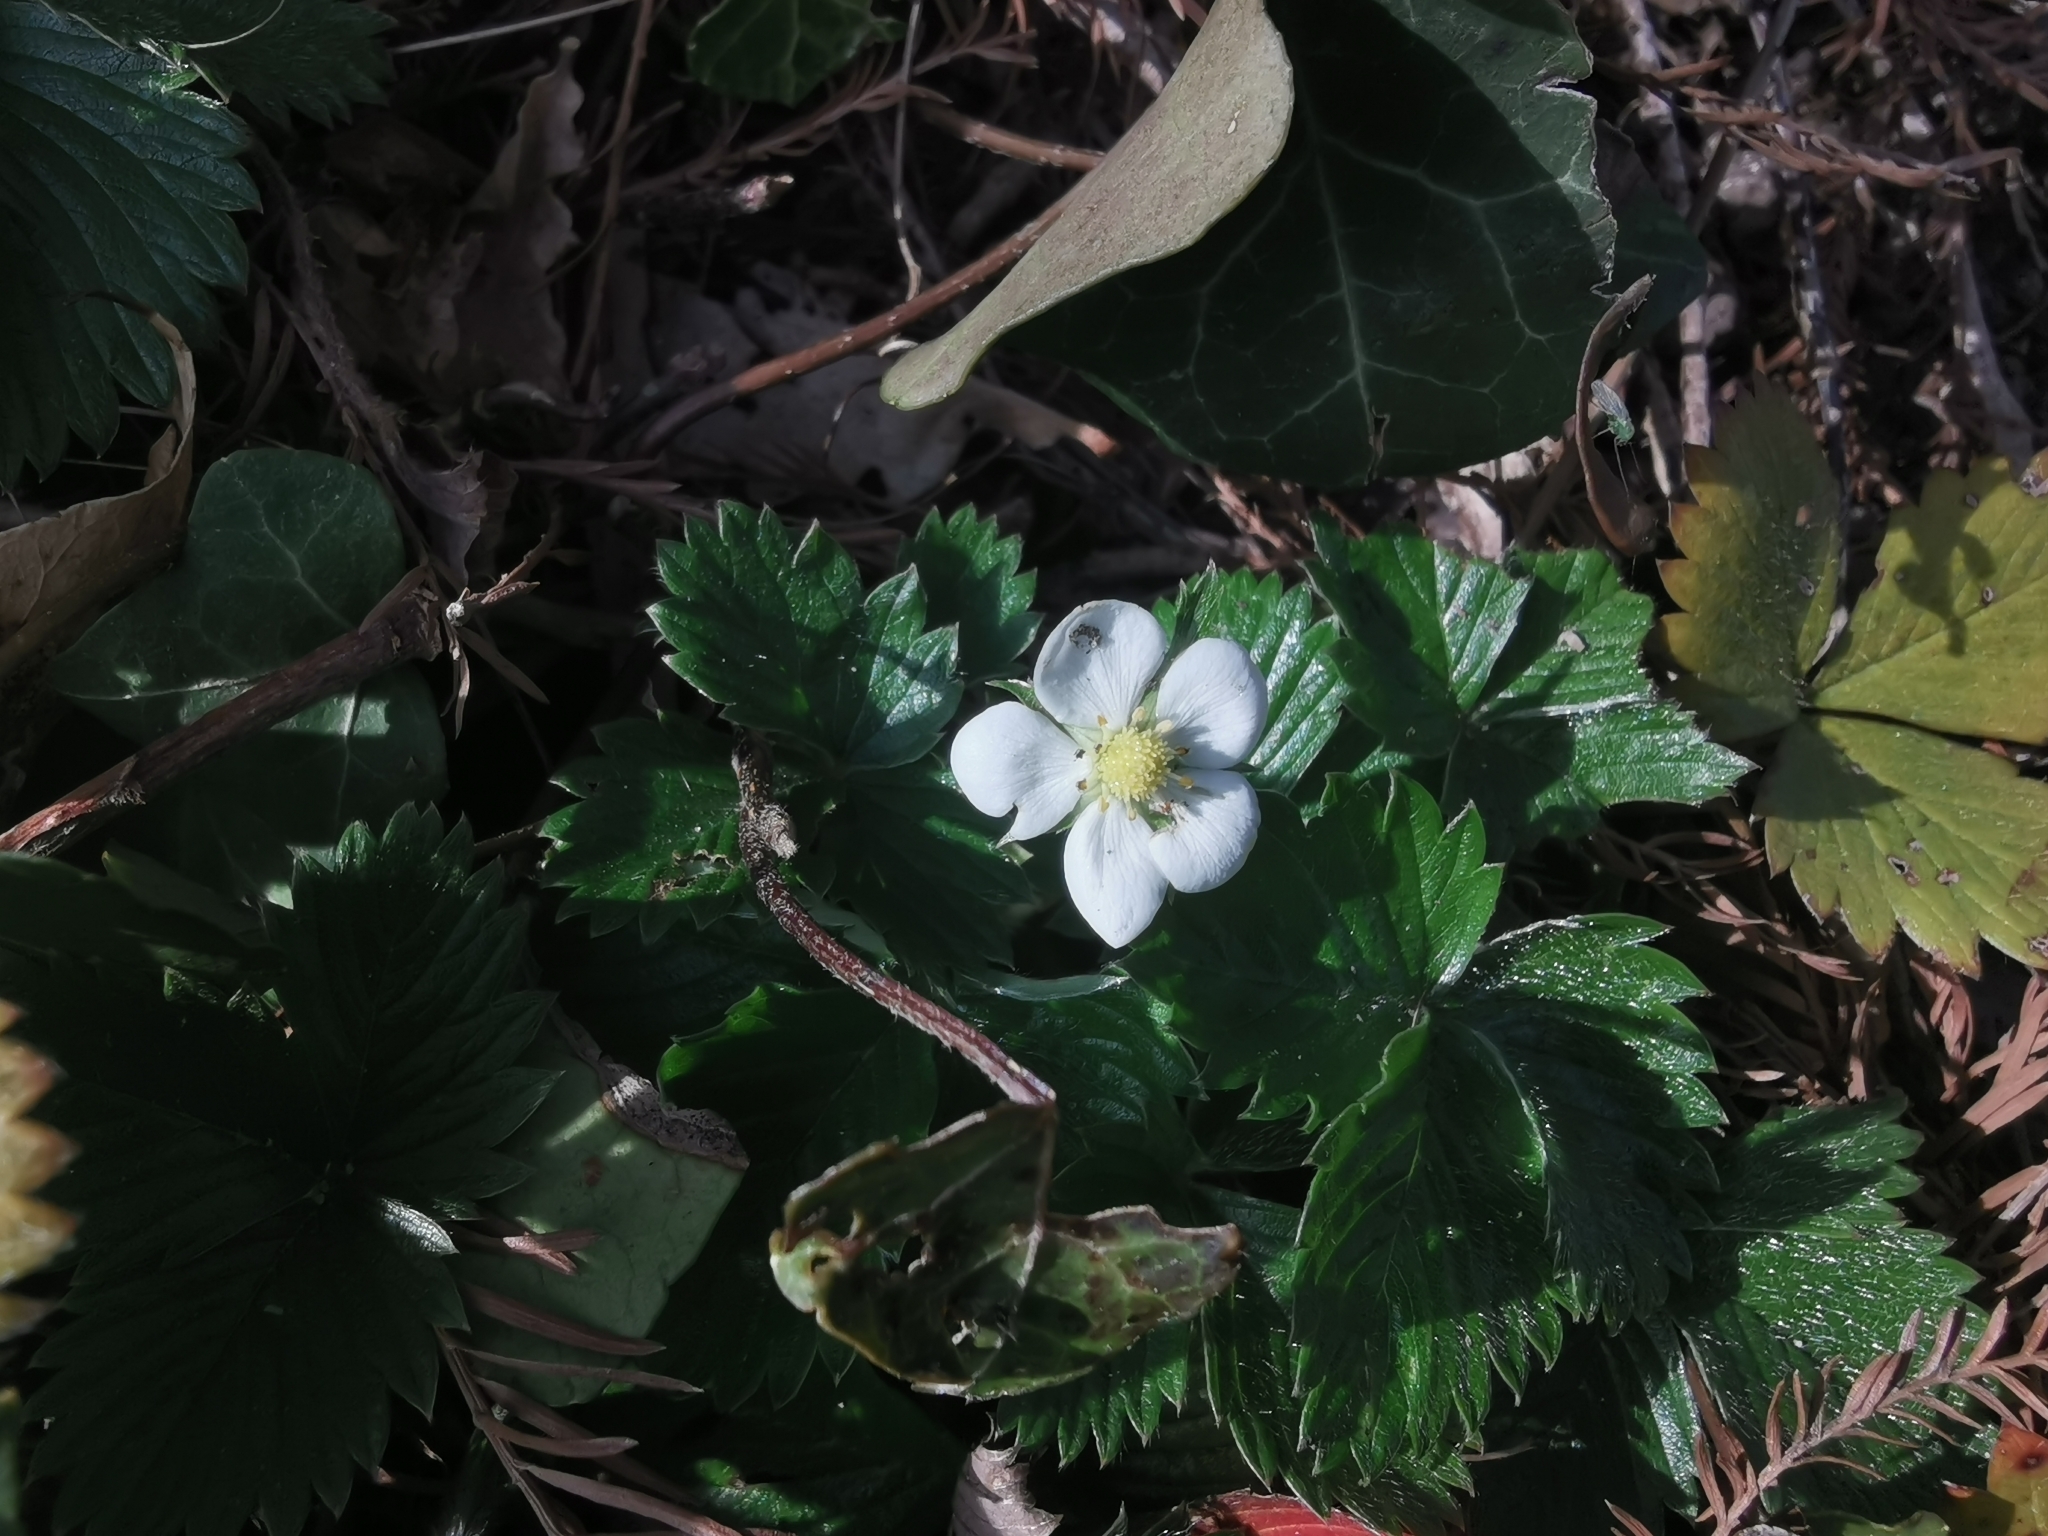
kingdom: Plantae
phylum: Tracheophyta
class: Magnoliopsida
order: Rosales
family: Rosaceae
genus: Fragaria
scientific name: Fragaria vesca
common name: Wild strawberry
